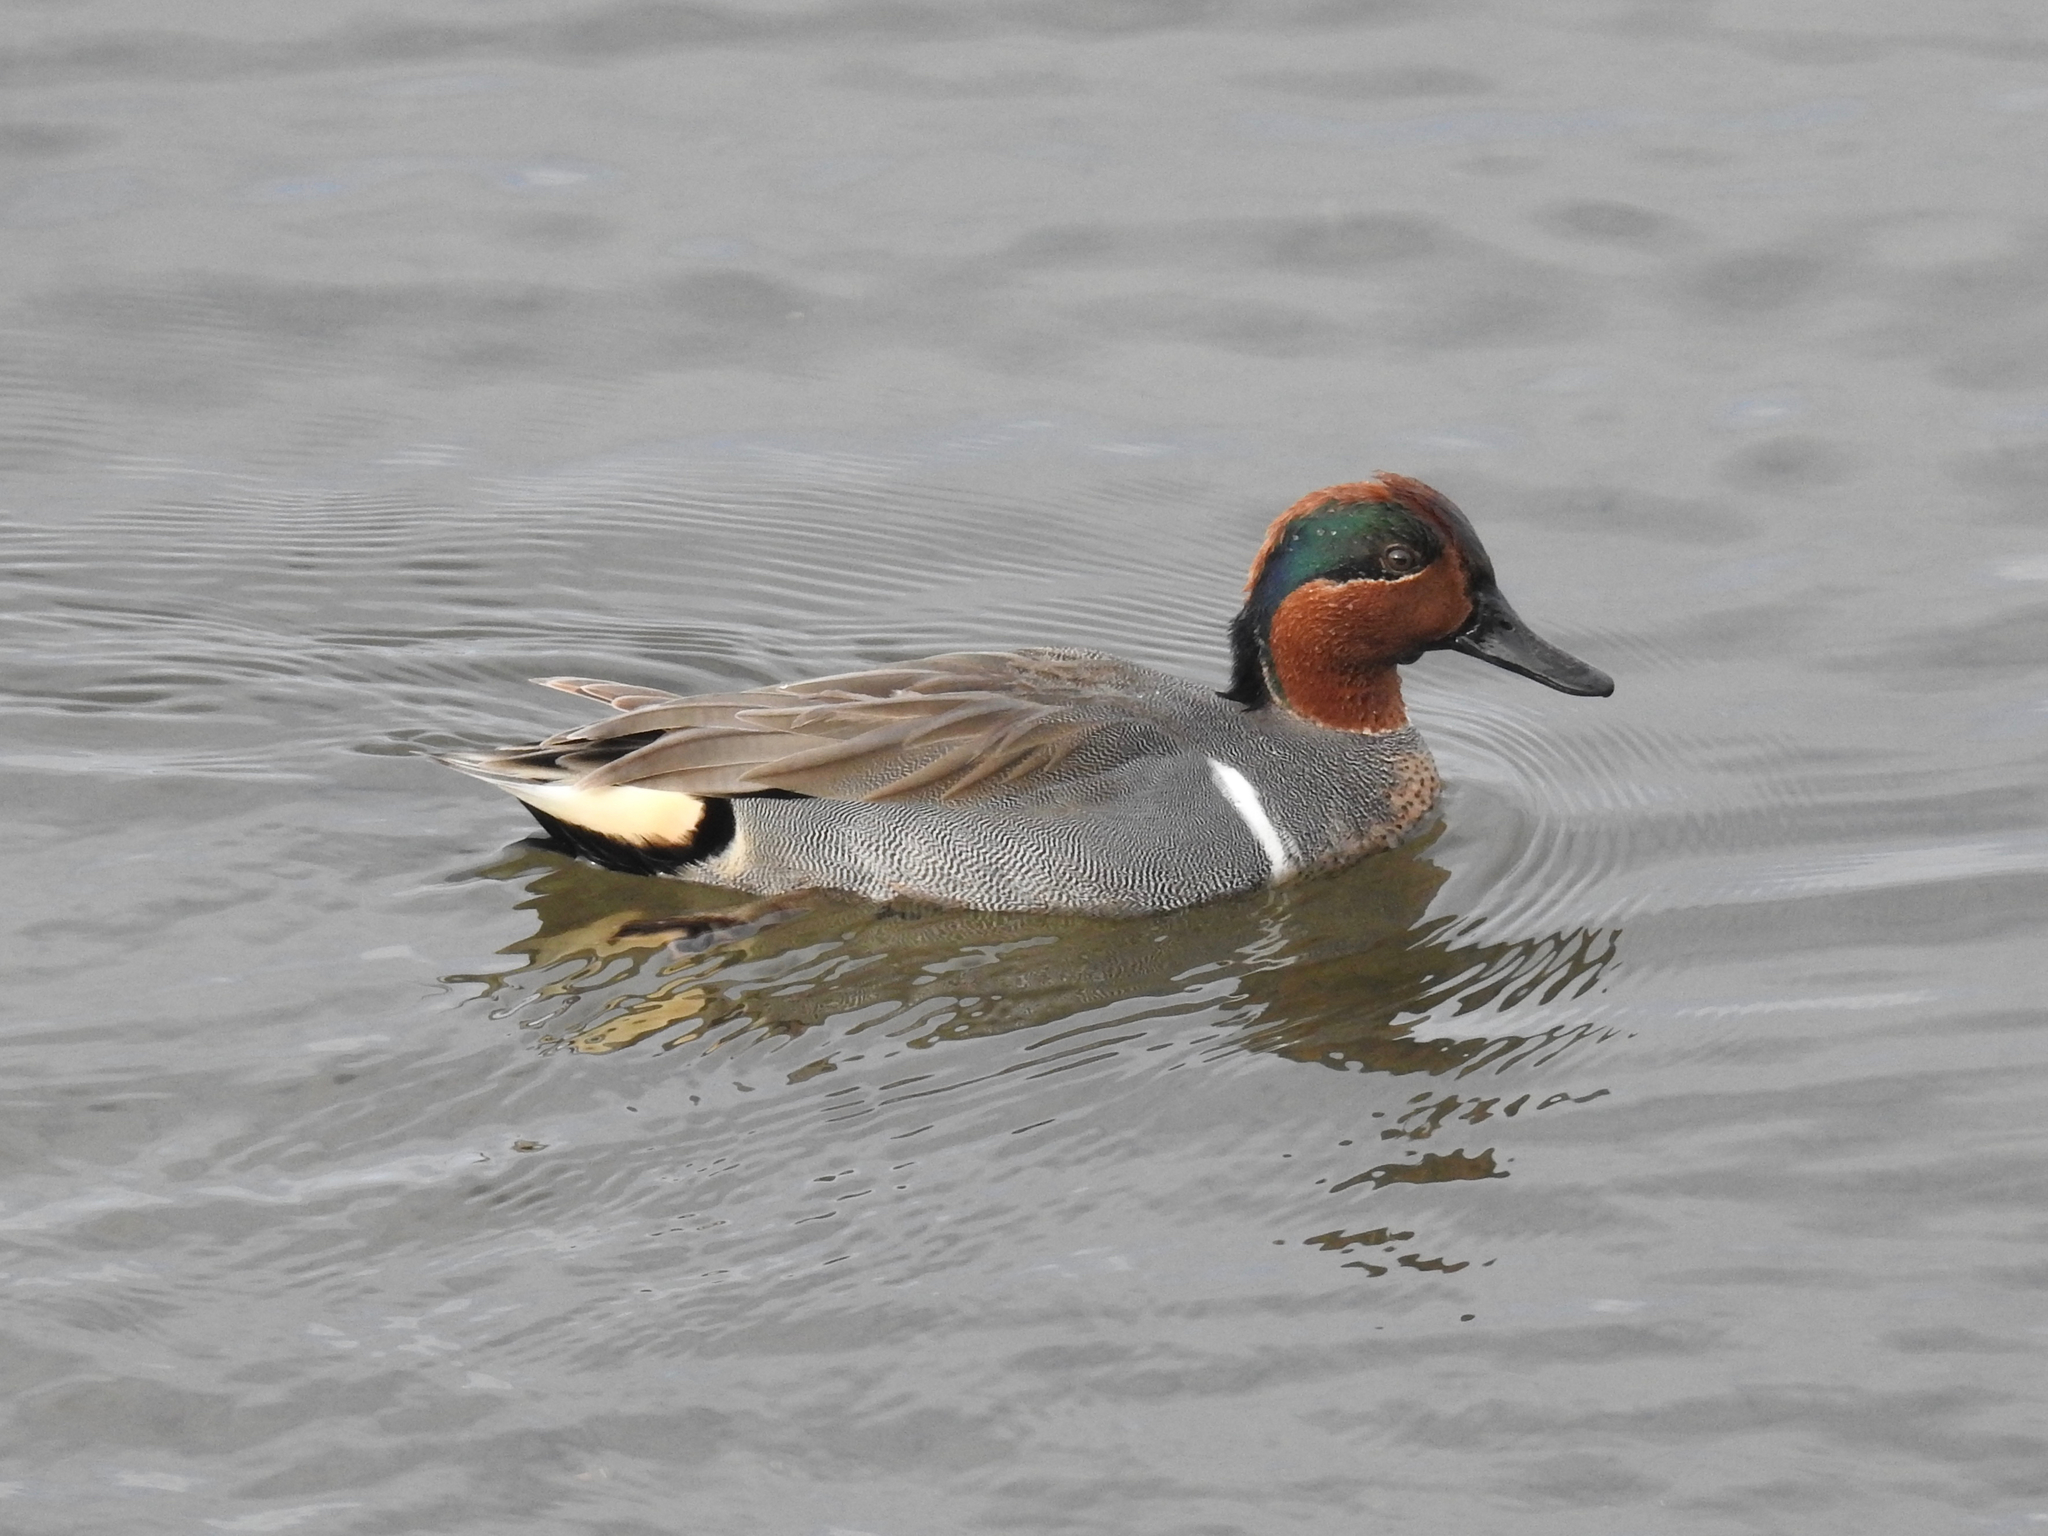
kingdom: Animalia
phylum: Chordata
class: Aves
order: Anseriformes
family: Anatidae
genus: Anas
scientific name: Anas crecca
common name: Eurasian teal
